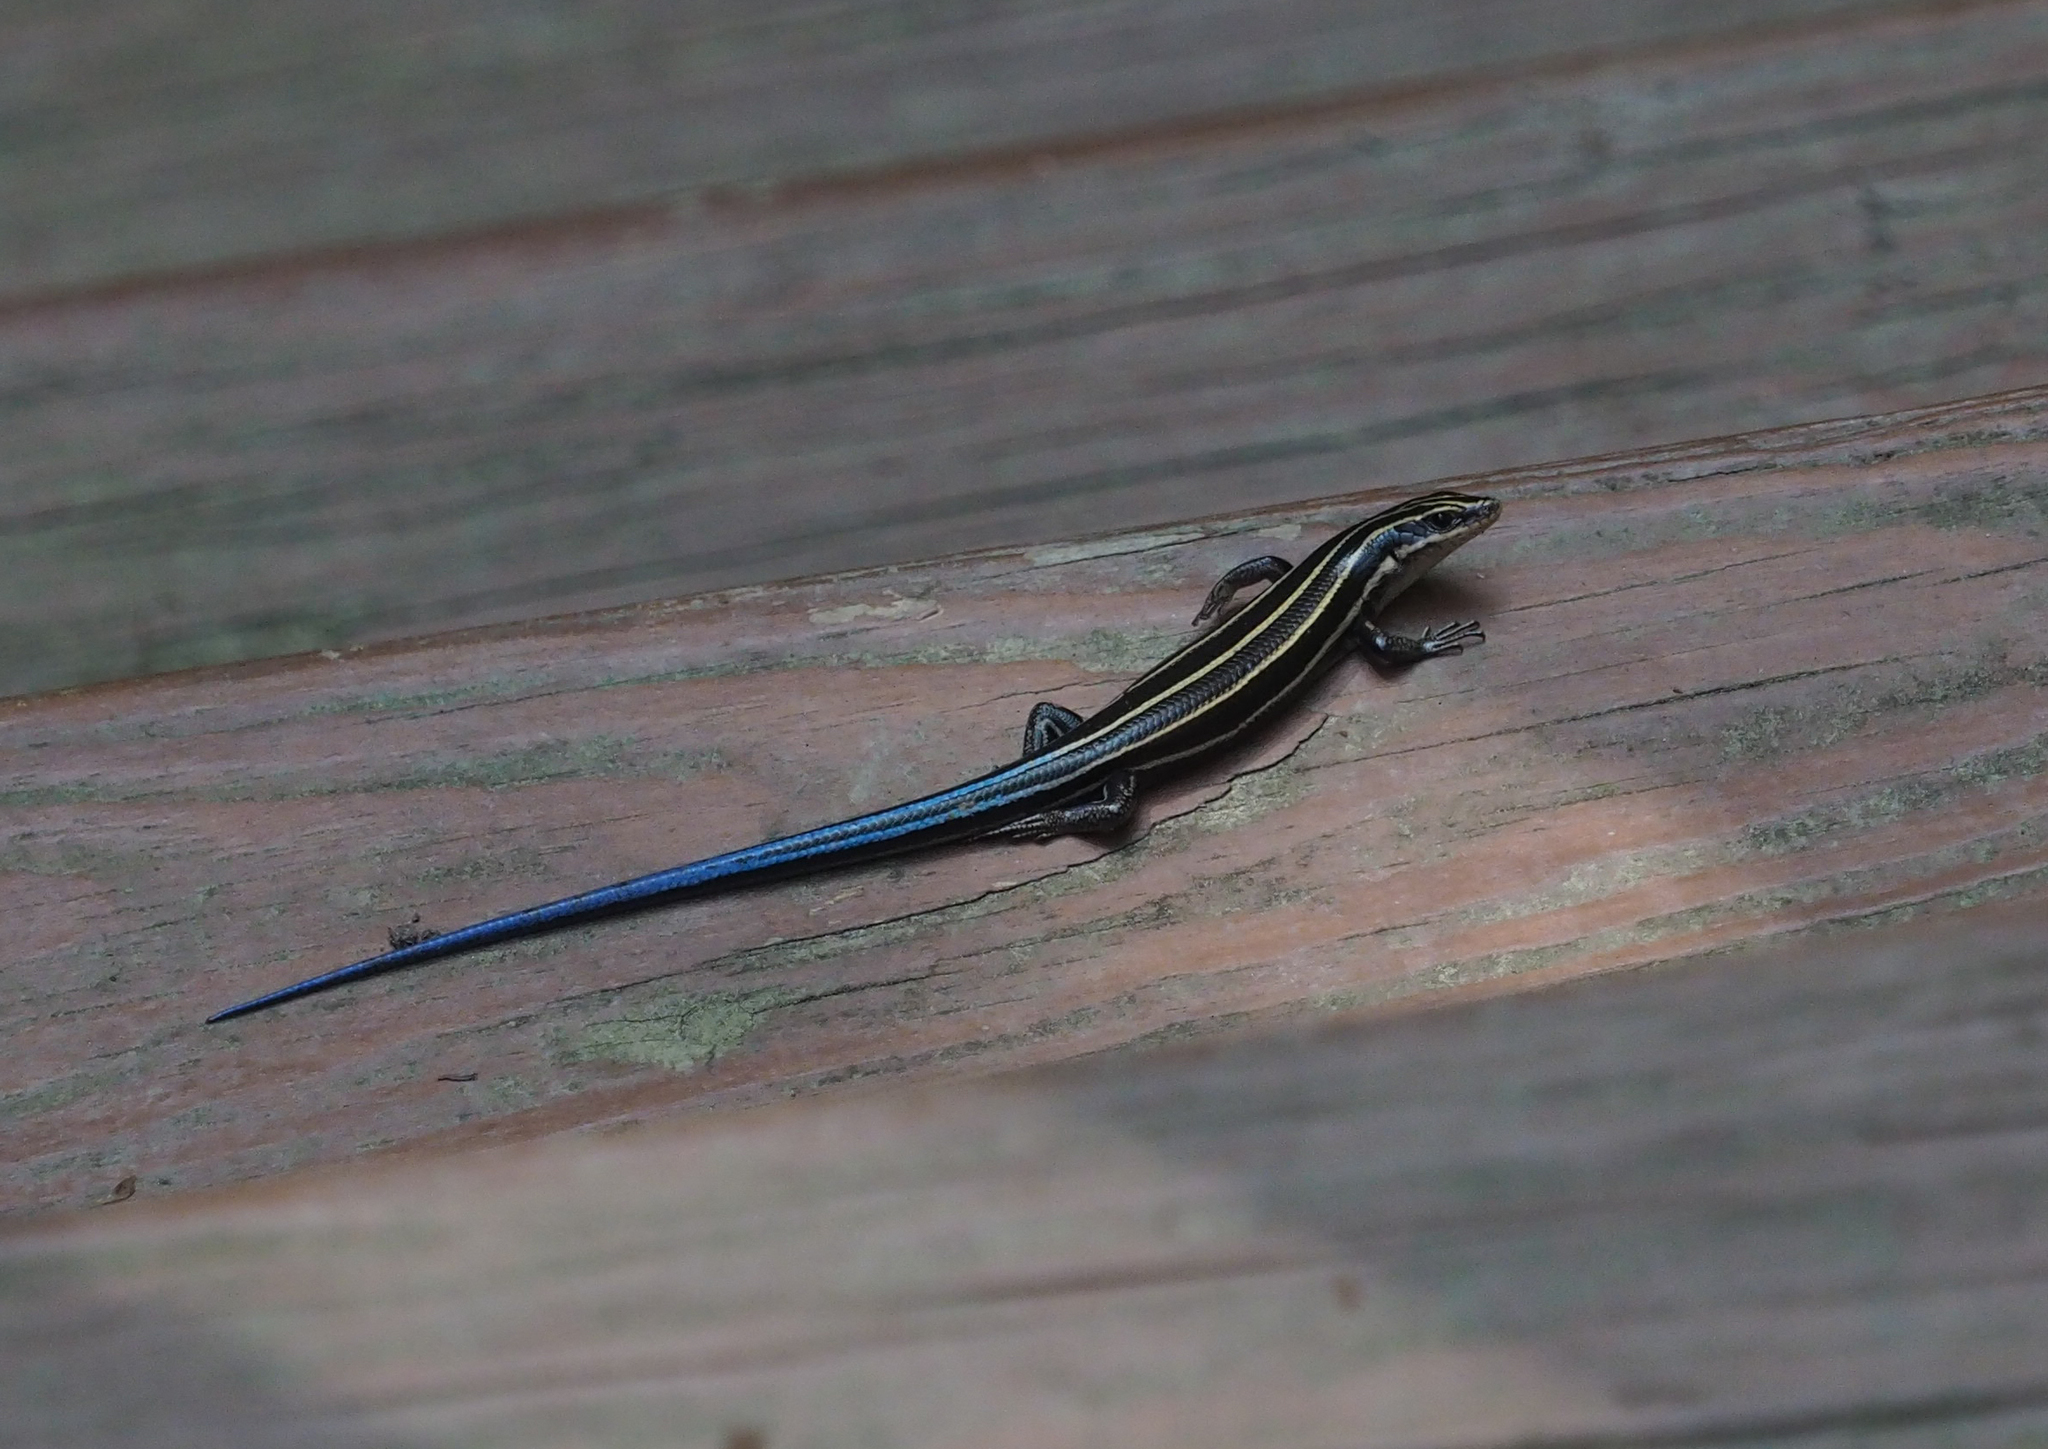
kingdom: Animalia
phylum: Chordata
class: Squamata
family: Scincidae
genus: Plestiodon
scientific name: Plestiodon fasciatus
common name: Five-lined skink
